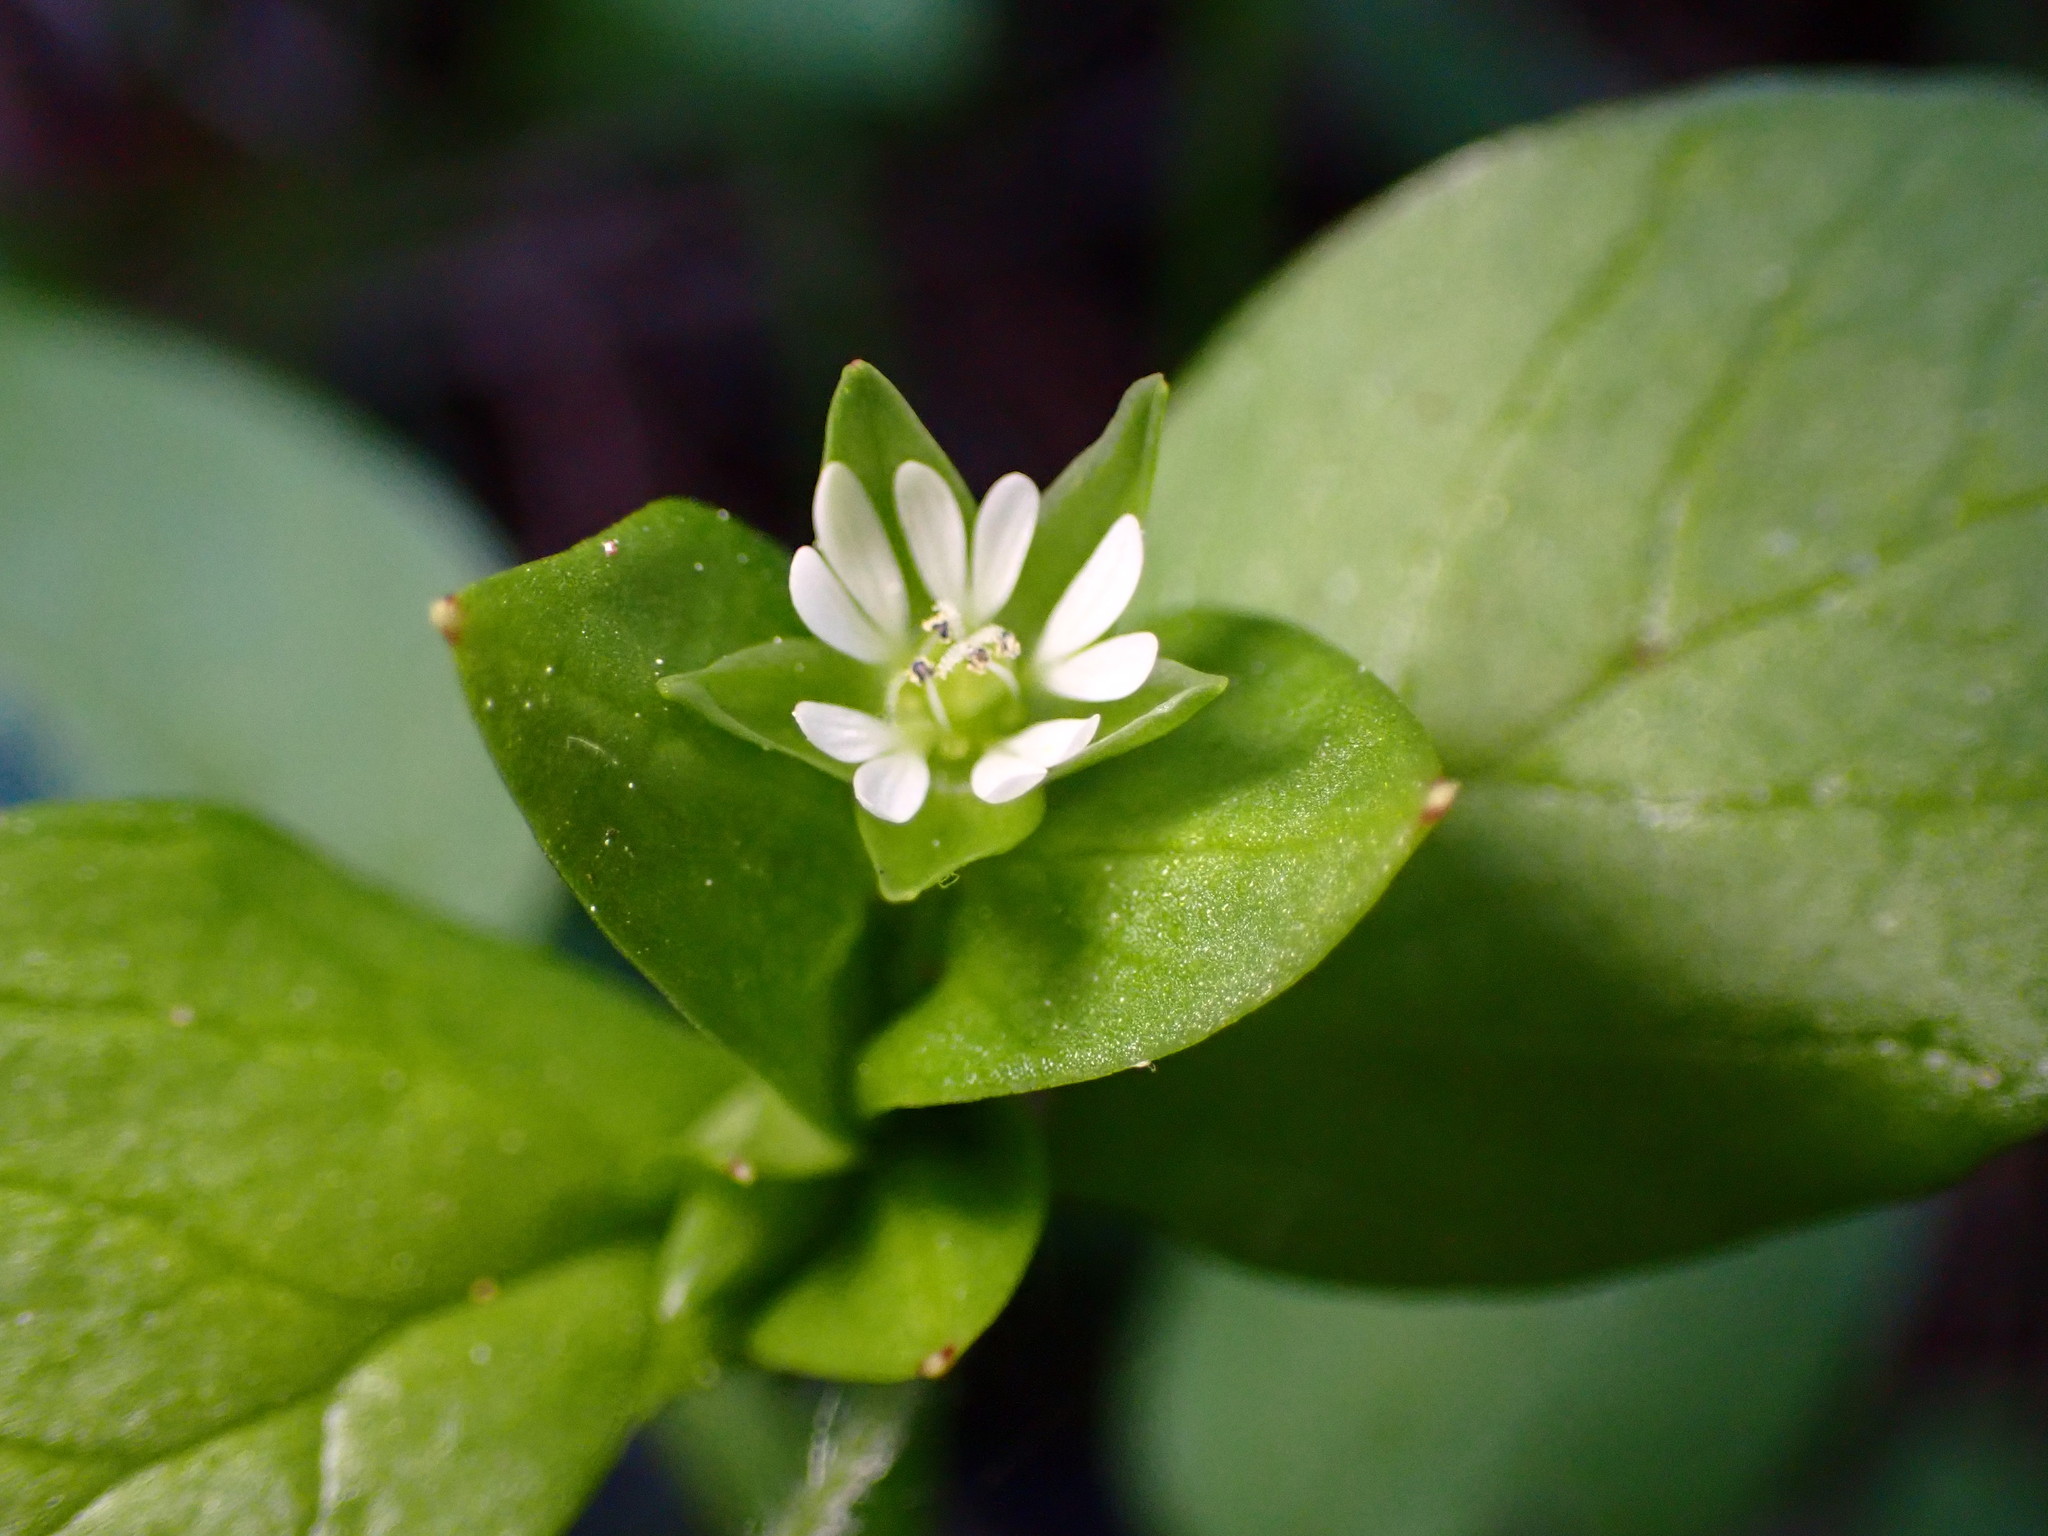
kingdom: Plantae
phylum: Tracheophyta
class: Magnoliopsida
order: Caryophyllales
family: Caryophyllaceae
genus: Stellaria
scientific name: Stellaria media
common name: Common chickweed
